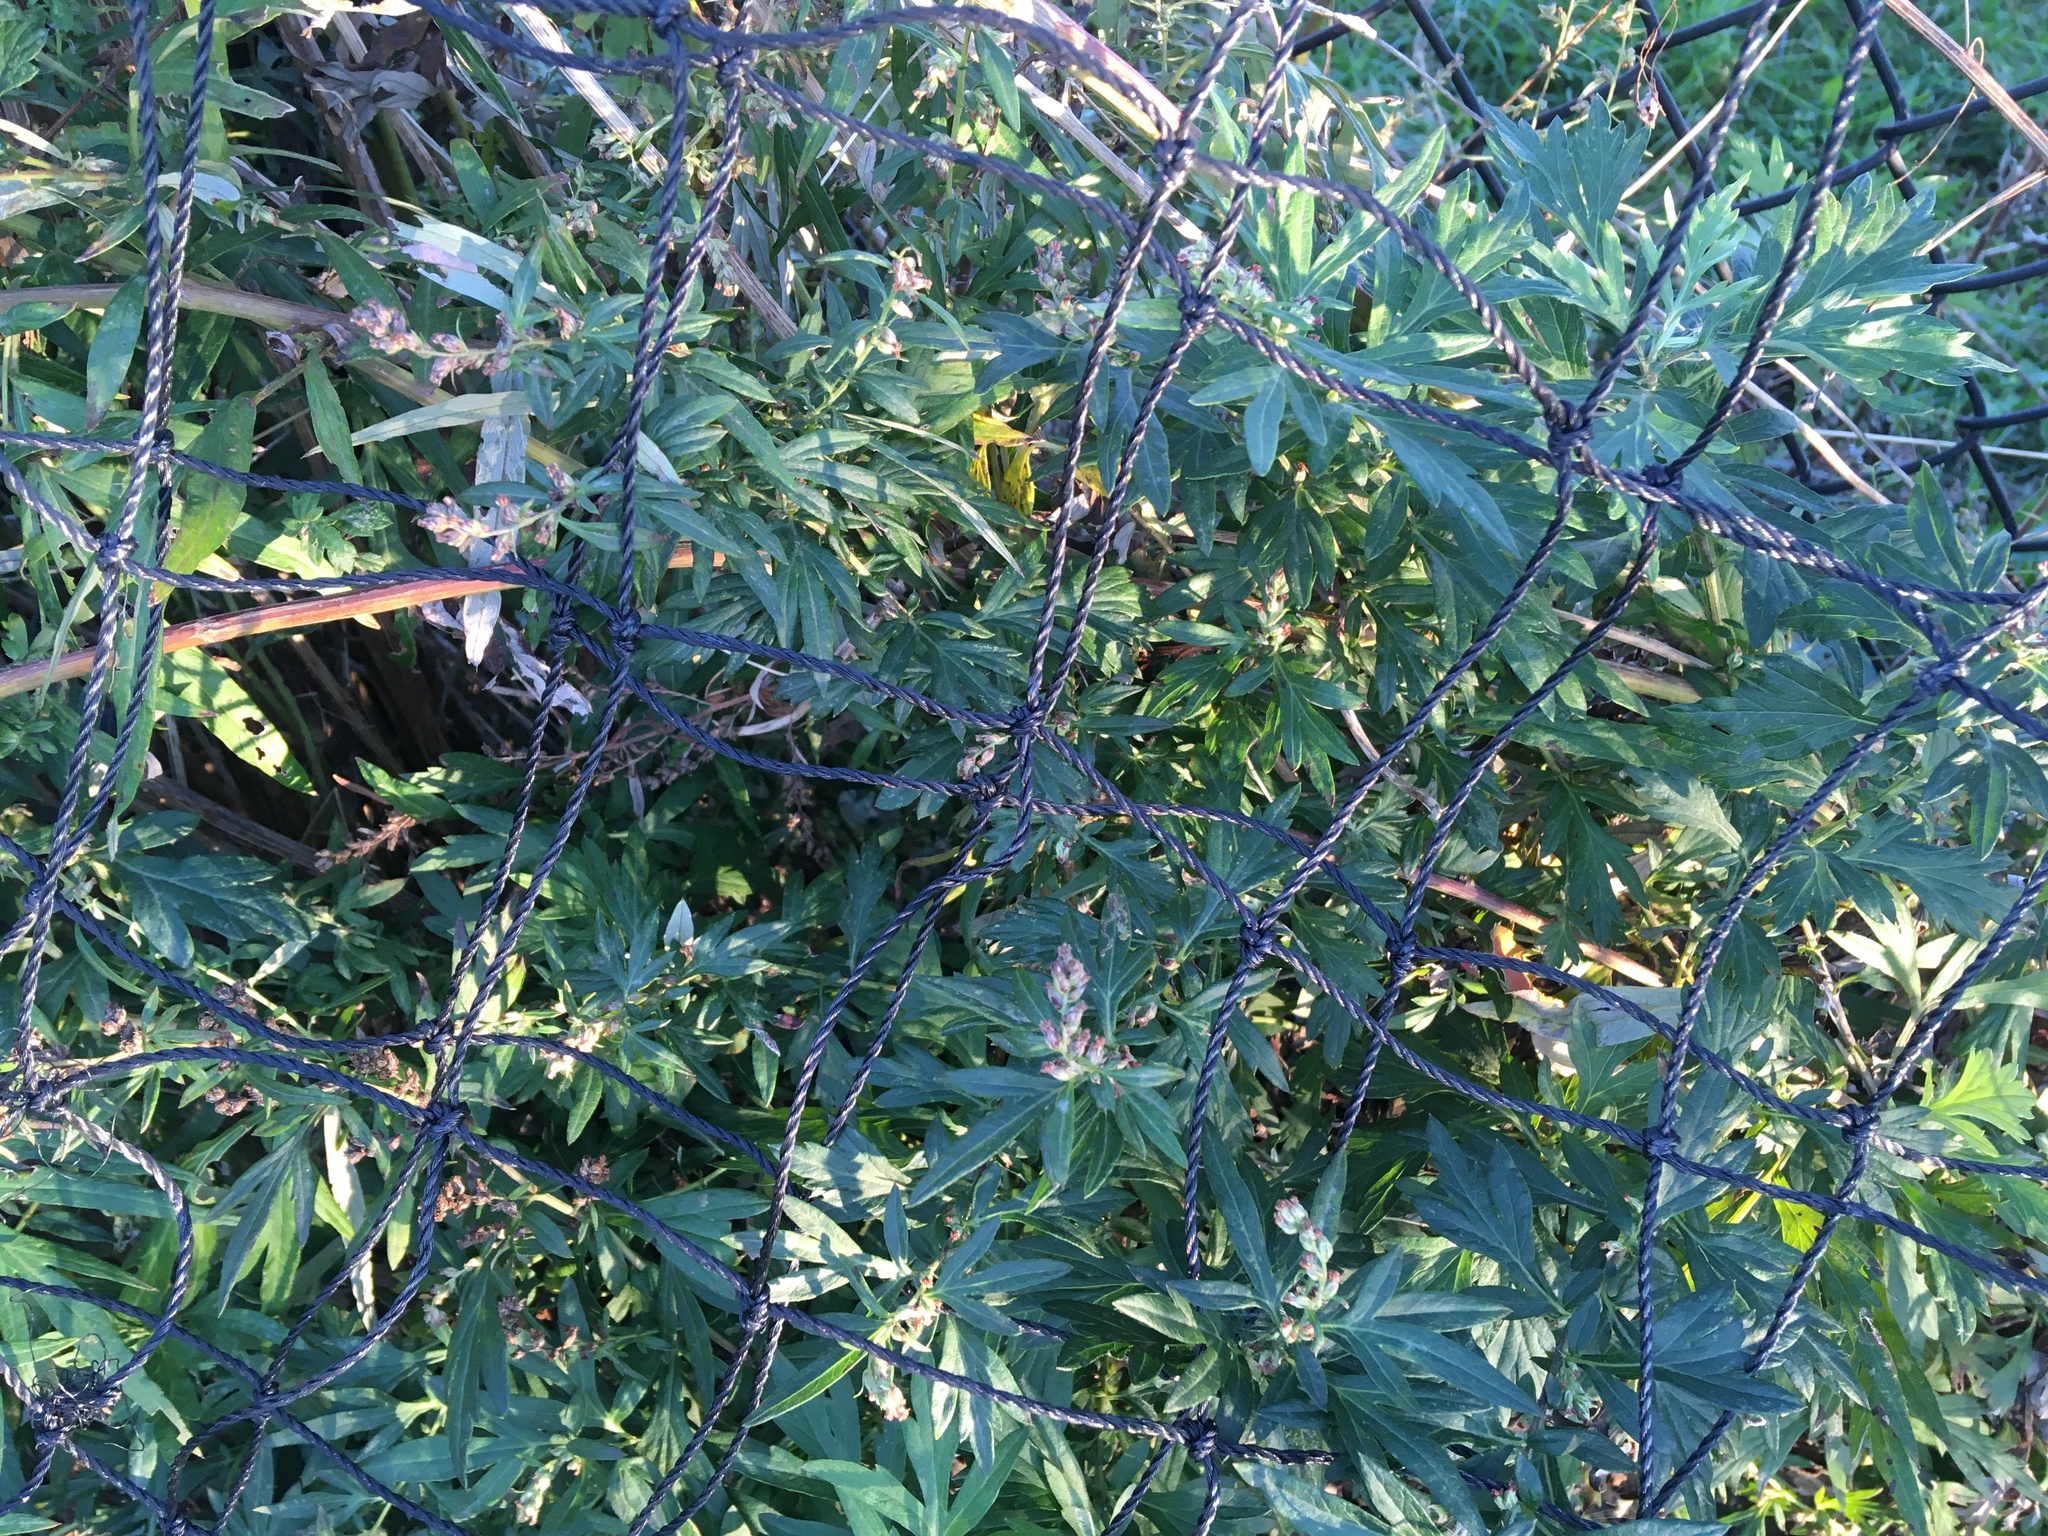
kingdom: Plantae
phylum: Tracheophyta
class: Magnoliopsida
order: Asterales
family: Asteraceae
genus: Artemisia
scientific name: Artemisia vulgaris
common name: Mugwort
